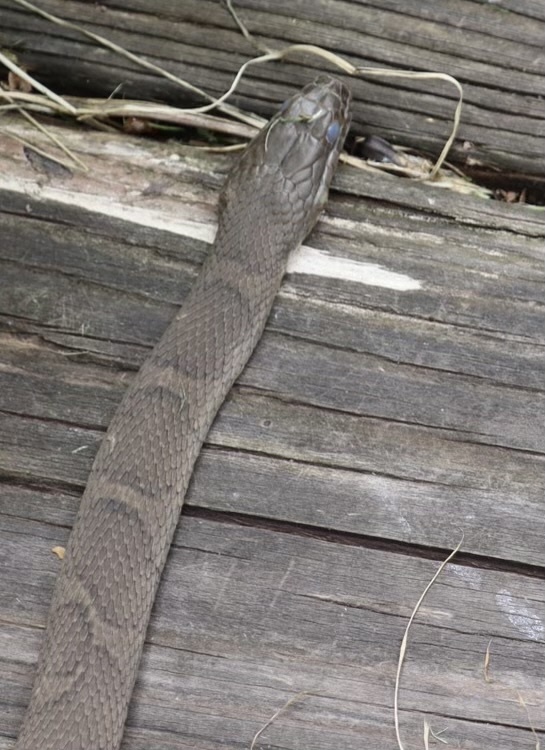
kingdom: Animalia
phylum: Chordata
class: Squamata
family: Colubridae
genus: Nerodia
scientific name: Nerodia sipedon
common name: Northern water snake
